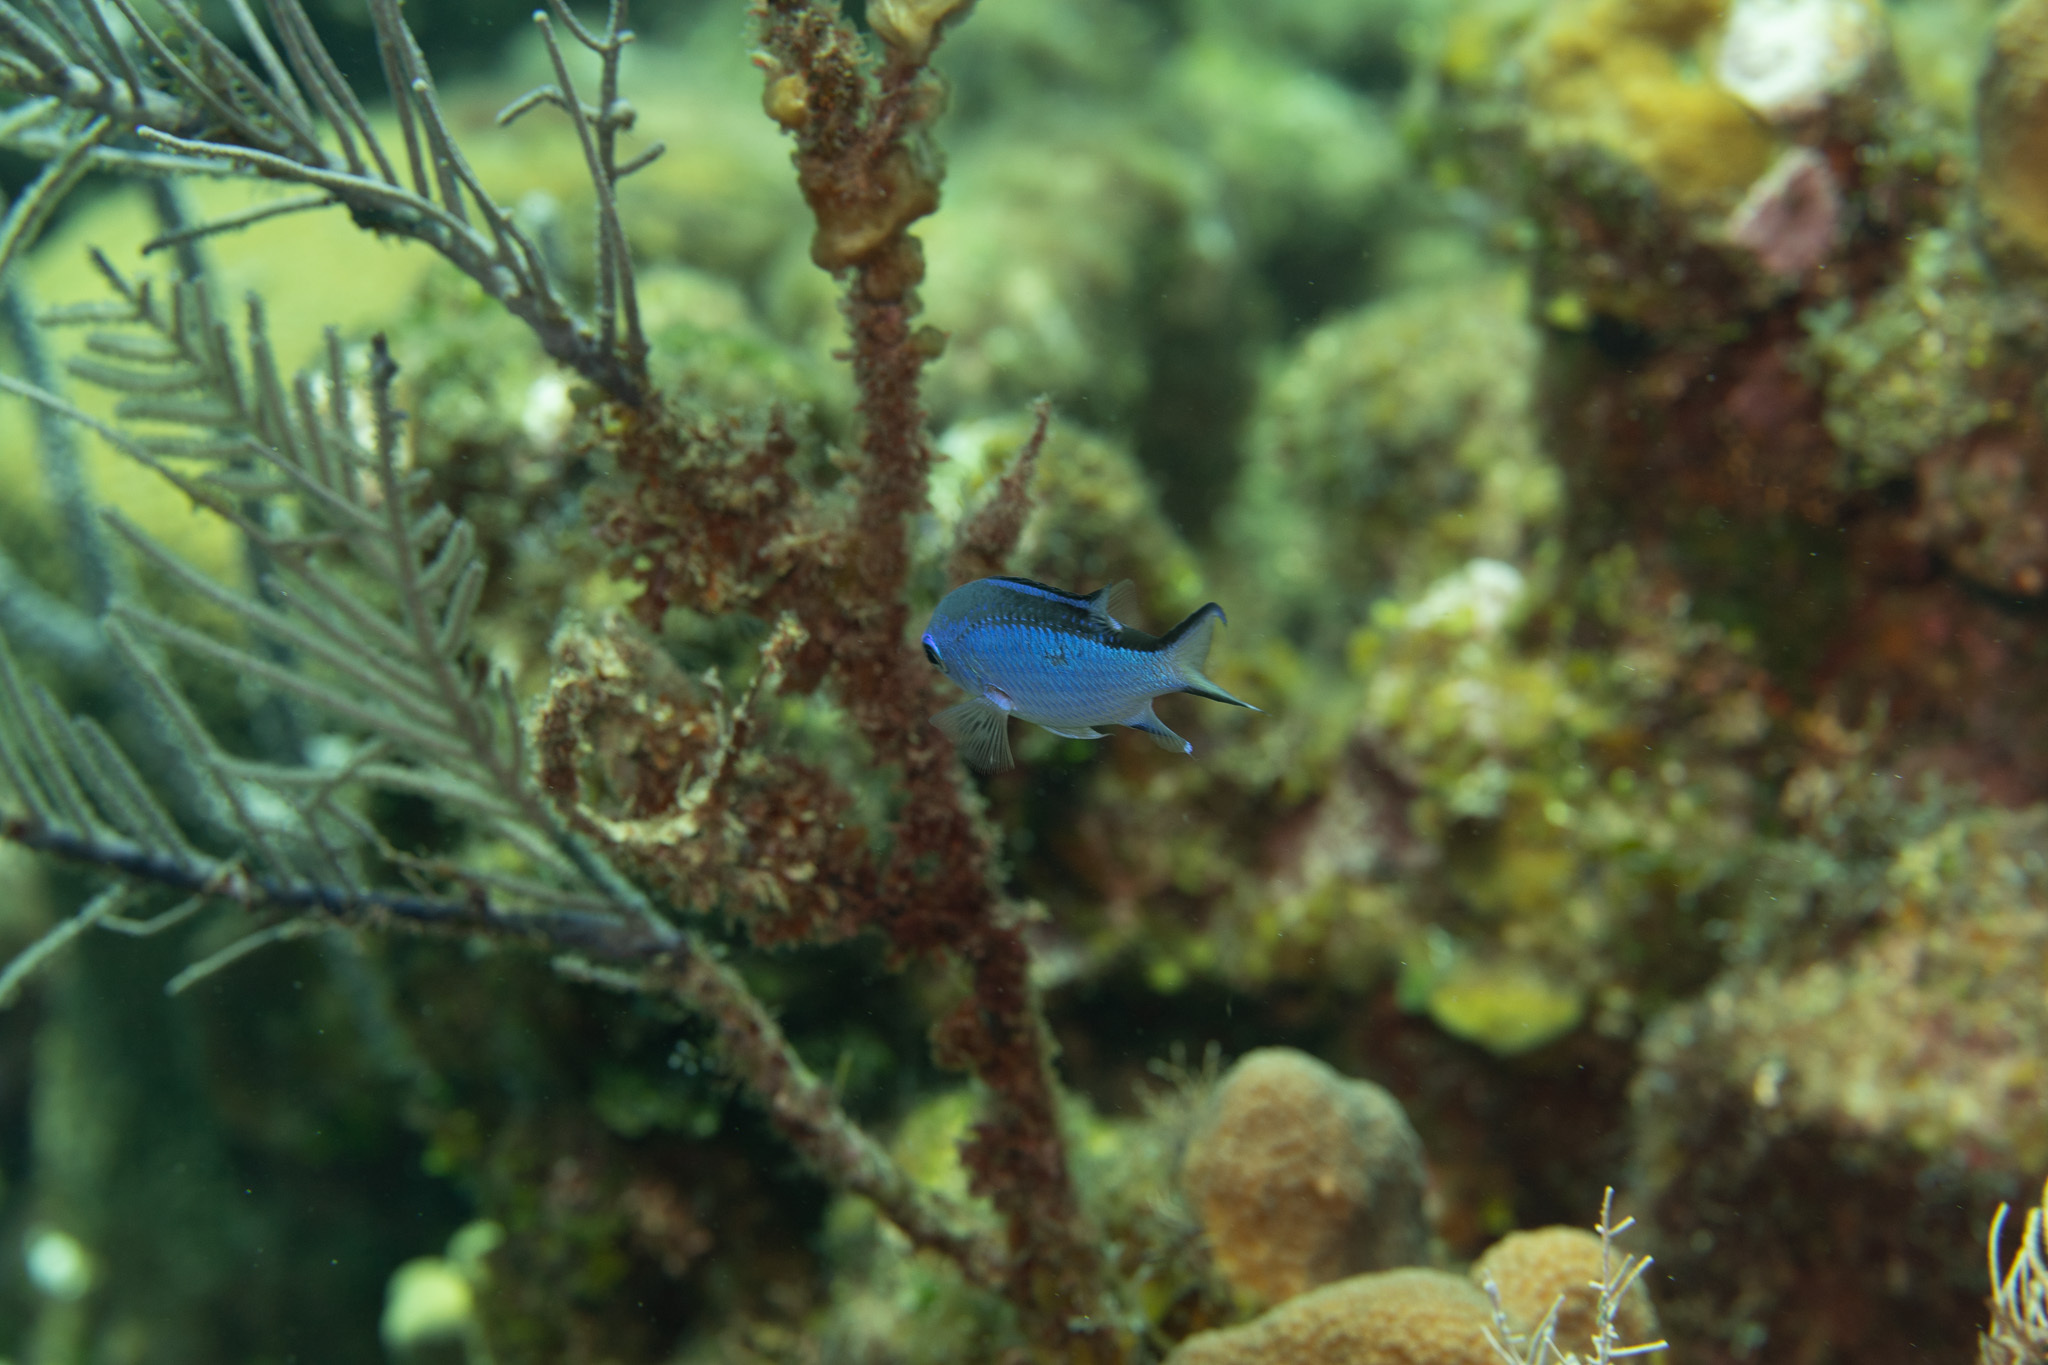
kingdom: Animalia
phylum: Chordata
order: Perciformes
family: Pomacentridae
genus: Chromis
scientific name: Chromis cyanea
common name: Blue chromis
